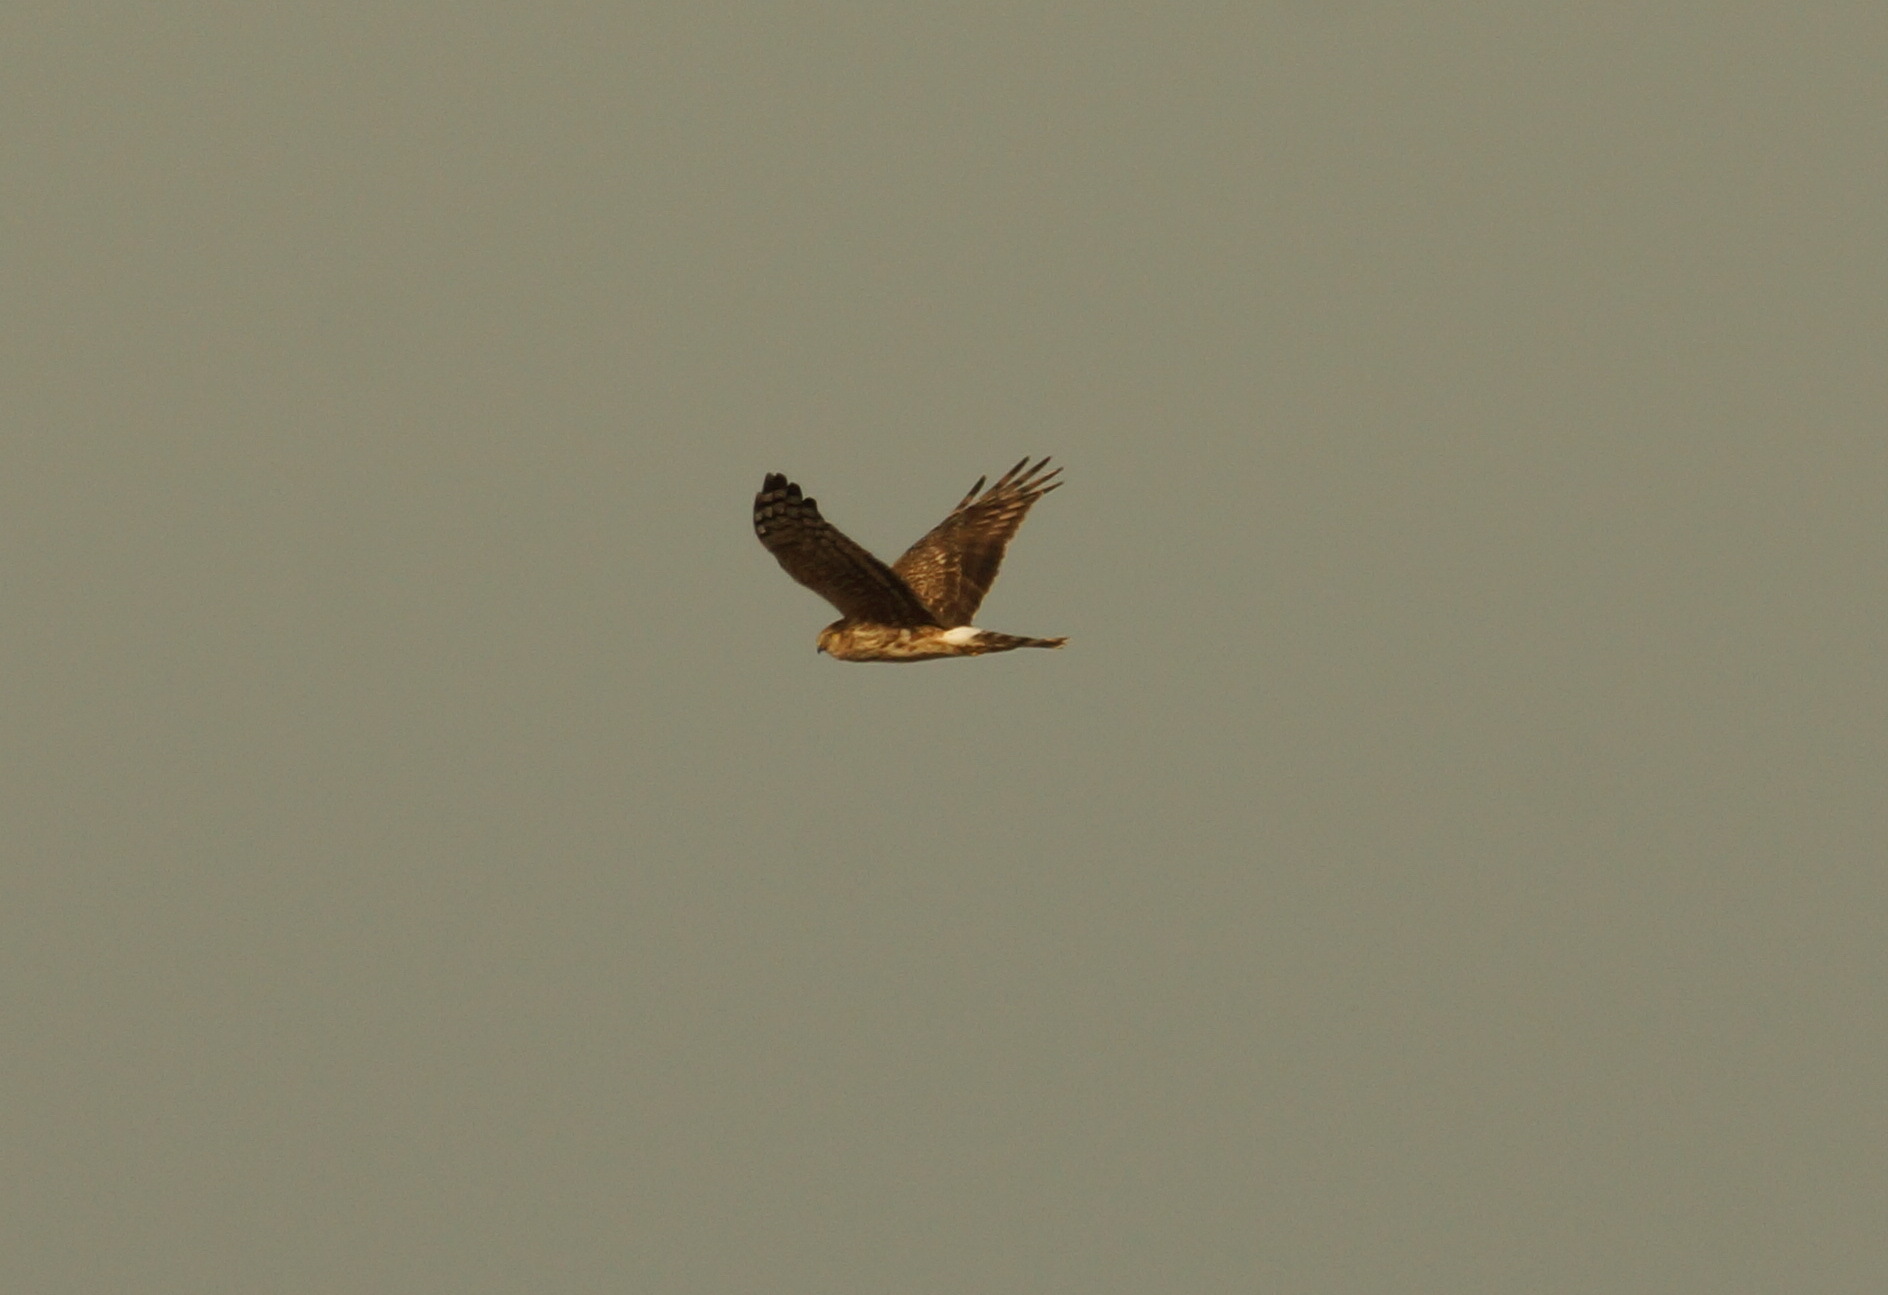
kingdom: Animalia
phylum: Chordata
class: Aves
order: Accipitriformes
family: Accipitridae
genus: Circus
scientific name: Circus cyaneus
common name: Hen harrier
